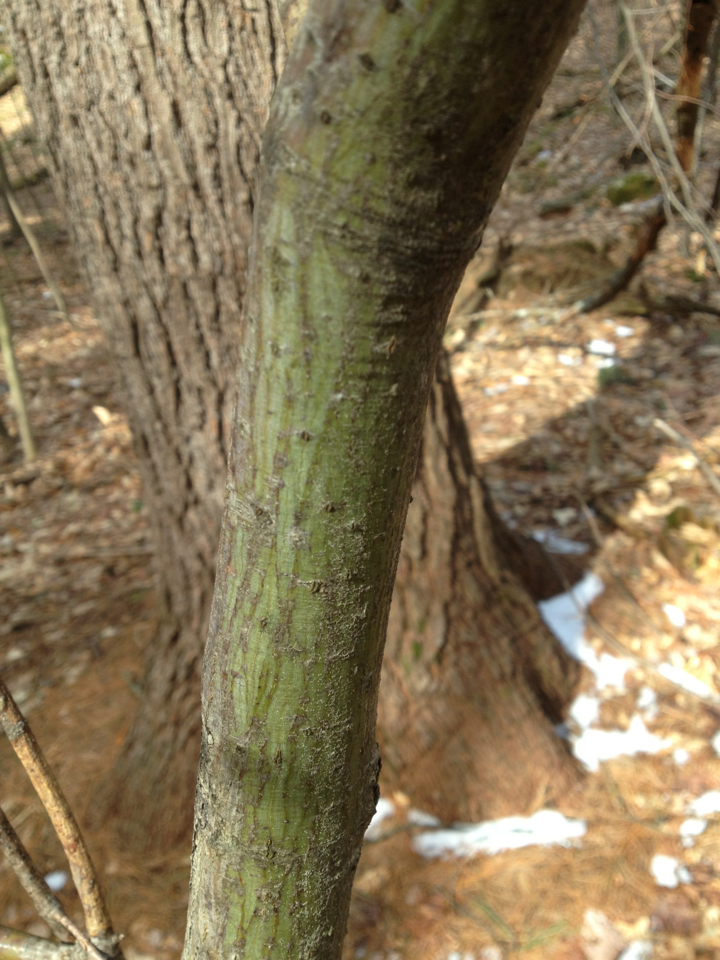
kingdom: Plantae
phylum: Tracheophyta
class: Magnoliopsida
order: Sapindales
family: Sapindaceae
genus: Acer
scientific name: Acer pensylvanicum
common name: Moosewood
